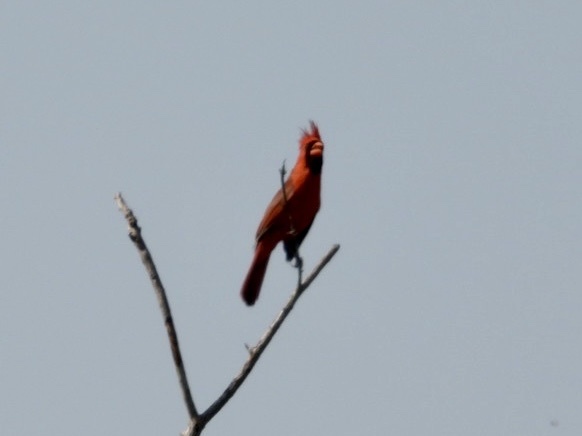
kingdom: Animalia
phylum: Chordata
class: Aves
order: Passeriformes
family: Cardinalidae
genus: Cardinalis
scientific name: Cardinalis cardinalis
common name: Northern cardinal
